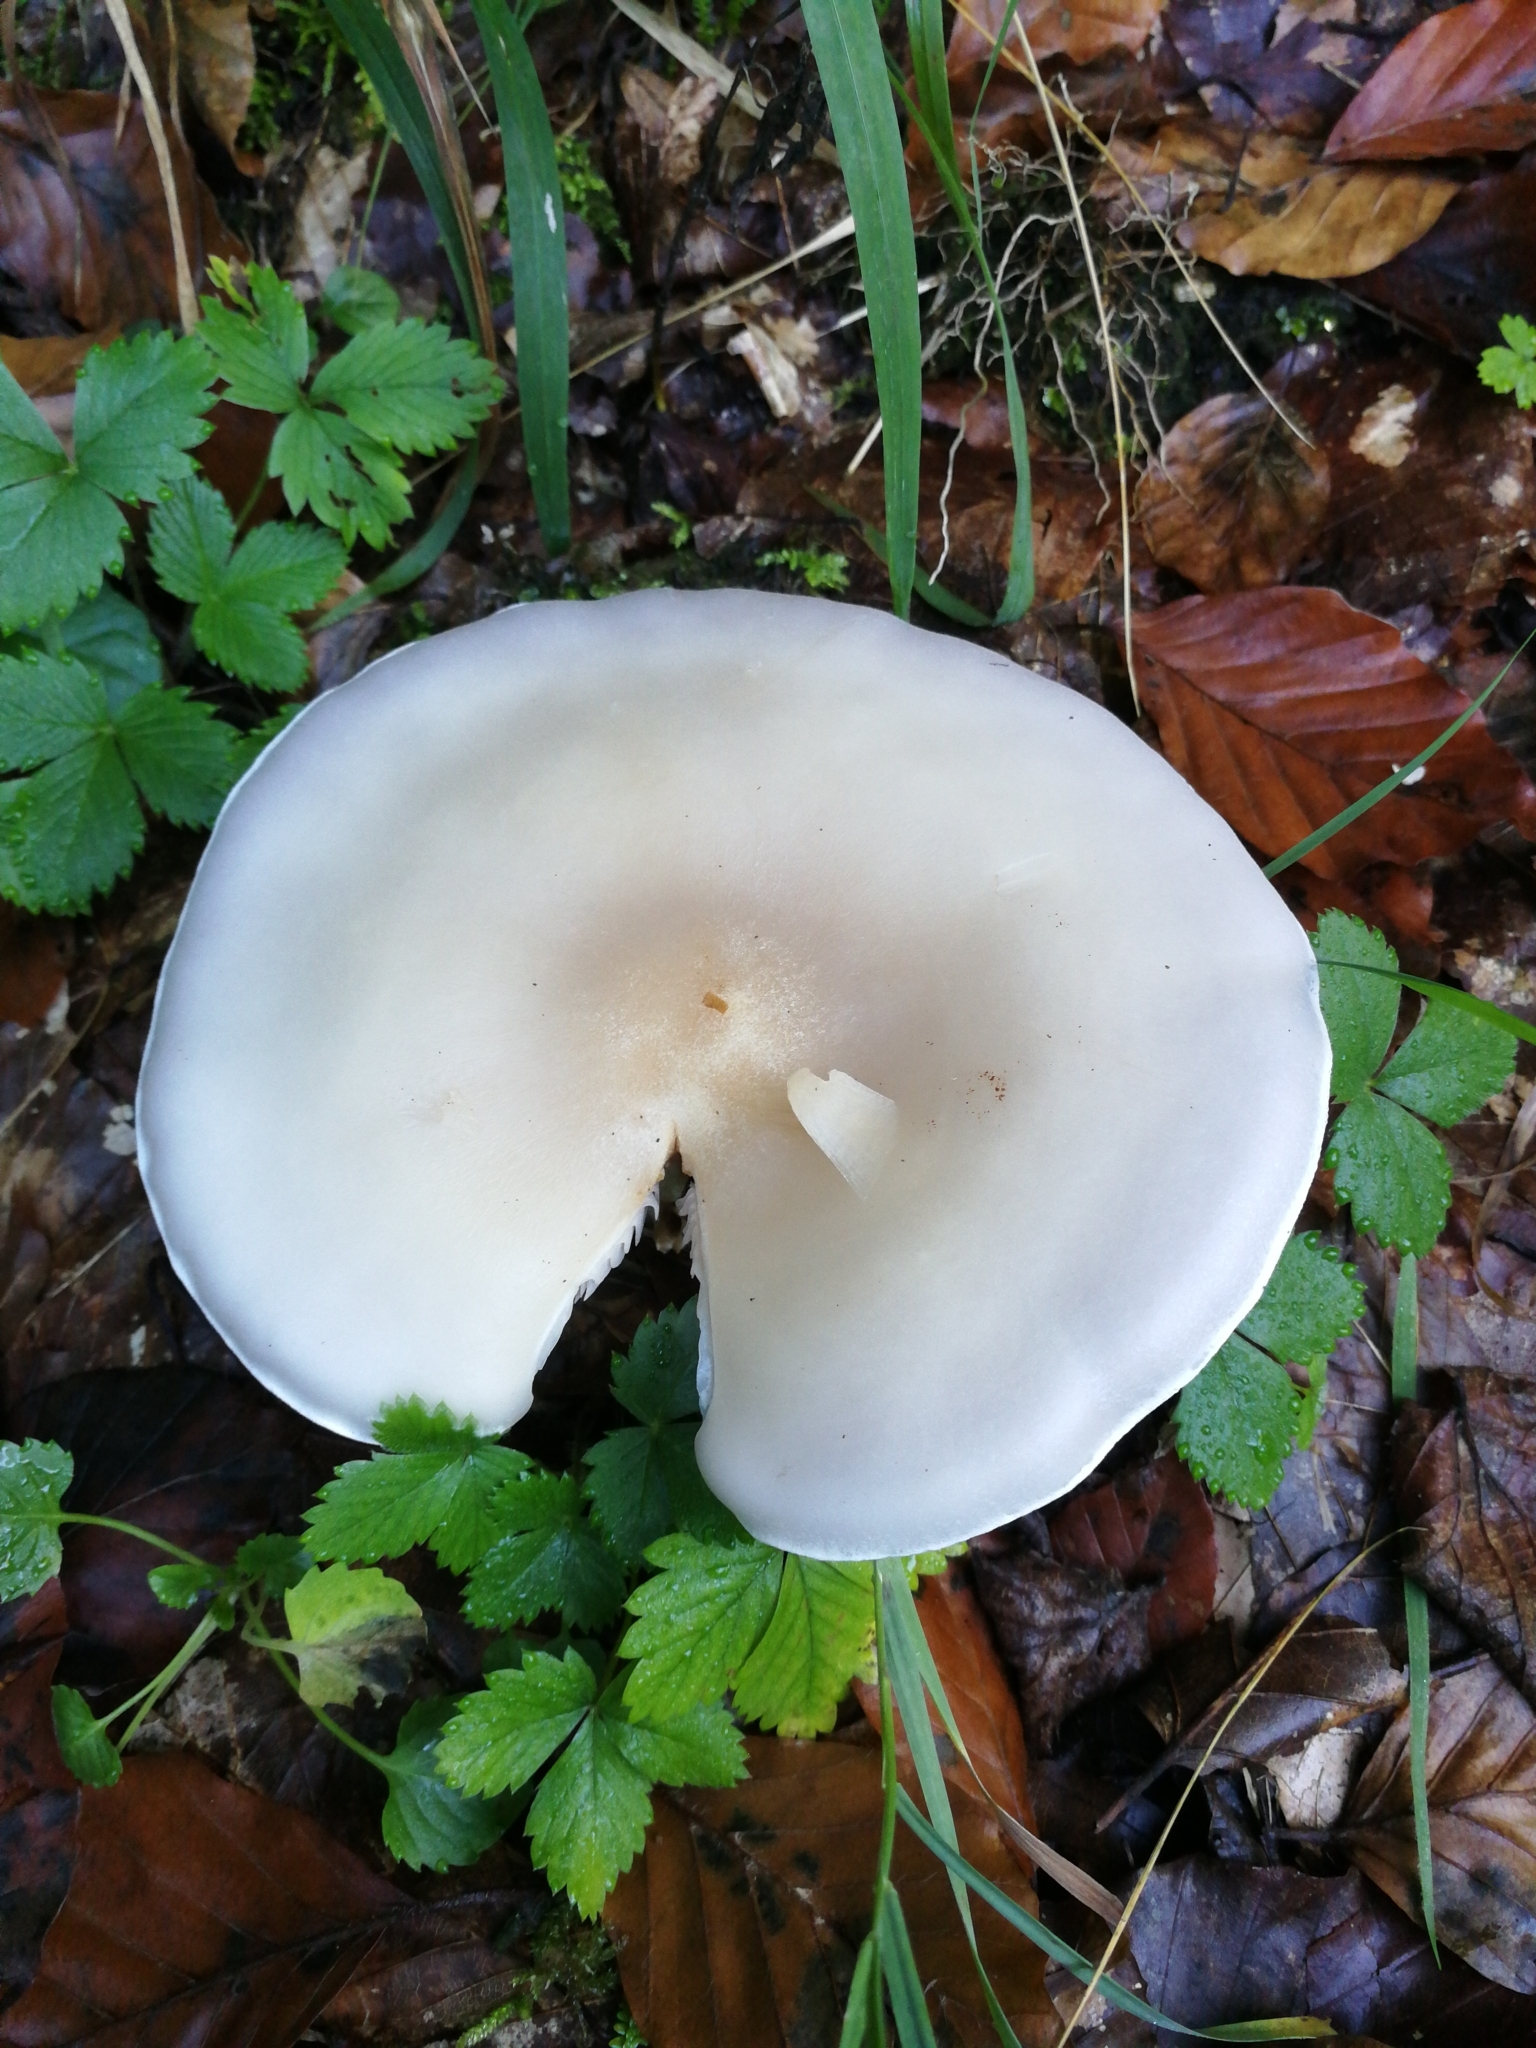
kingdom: Fungi
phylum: Basidiomycota
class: Agaricomycetes
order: Agaricales
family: Tricholomataceae
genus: Lepista
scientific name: Lepista glaucocana
